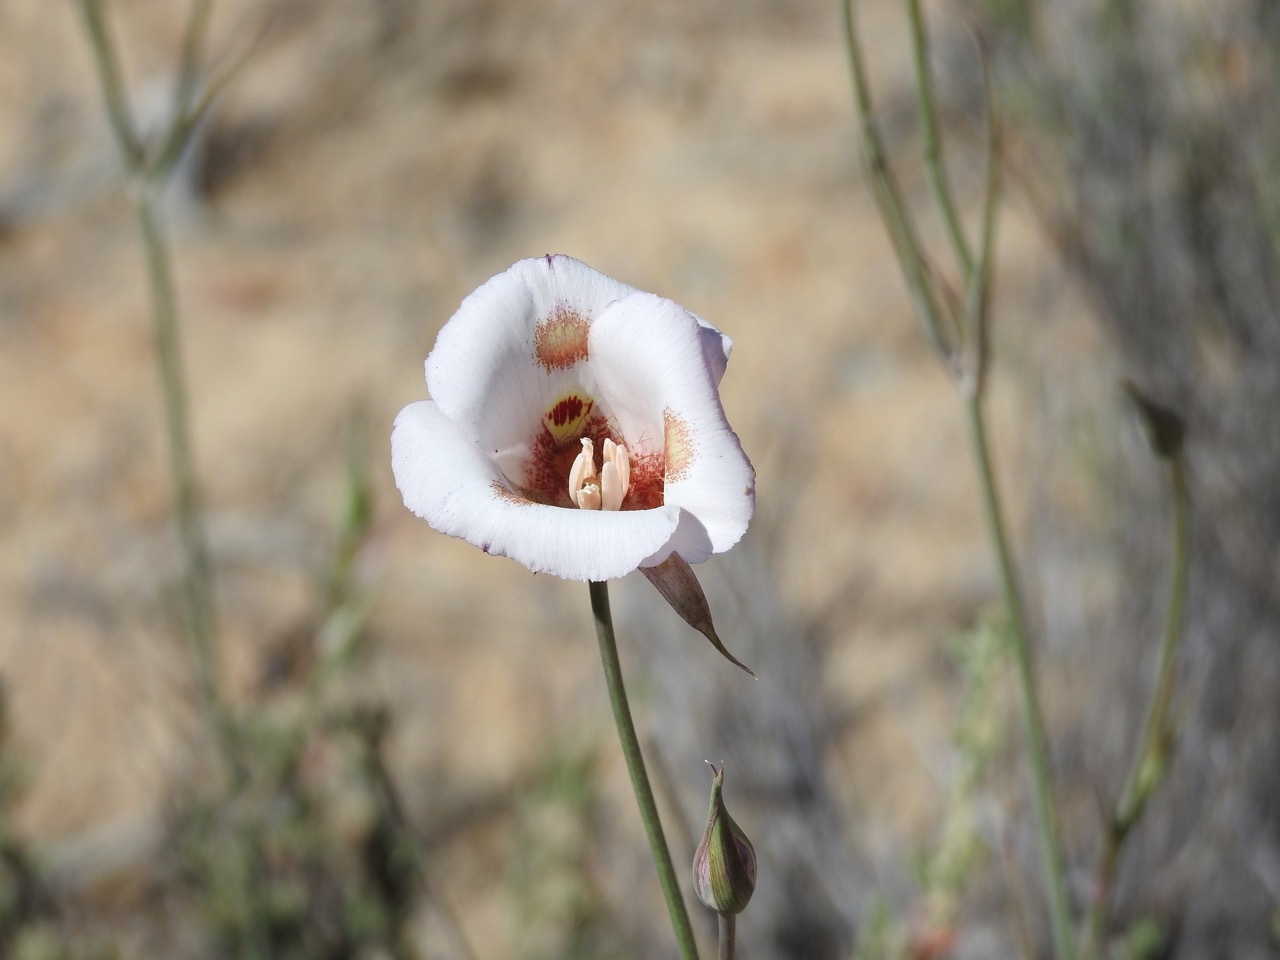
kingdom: Plantae
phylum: Tracheophyta
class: Liliopsida
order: Liliales
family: Liliaceae
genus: Calochortus
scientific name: Calochortus venustus
